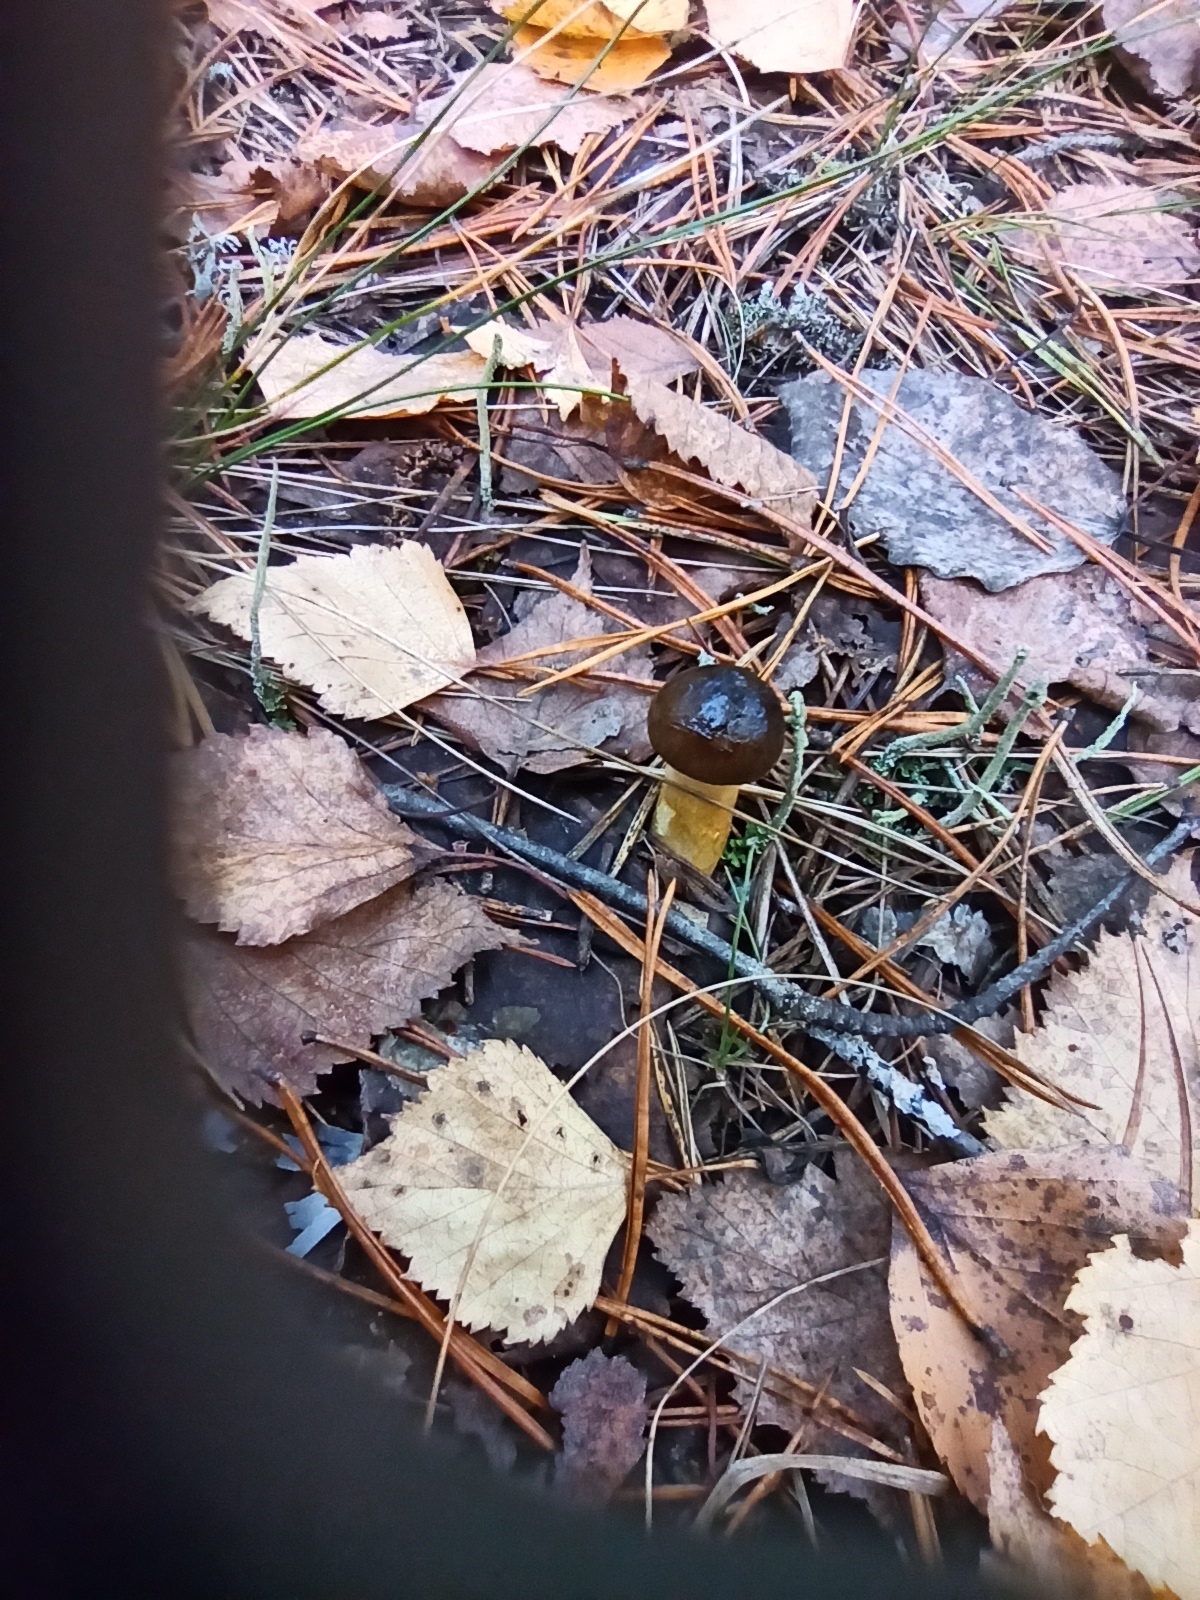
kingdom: Fungi
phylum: Basidiomycota
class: Agaricomycetes
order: Agaricales
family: Hygrophoraceae
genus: Hygrophorus
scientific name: Hygrophorus hypothejus
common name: Herald of winter
